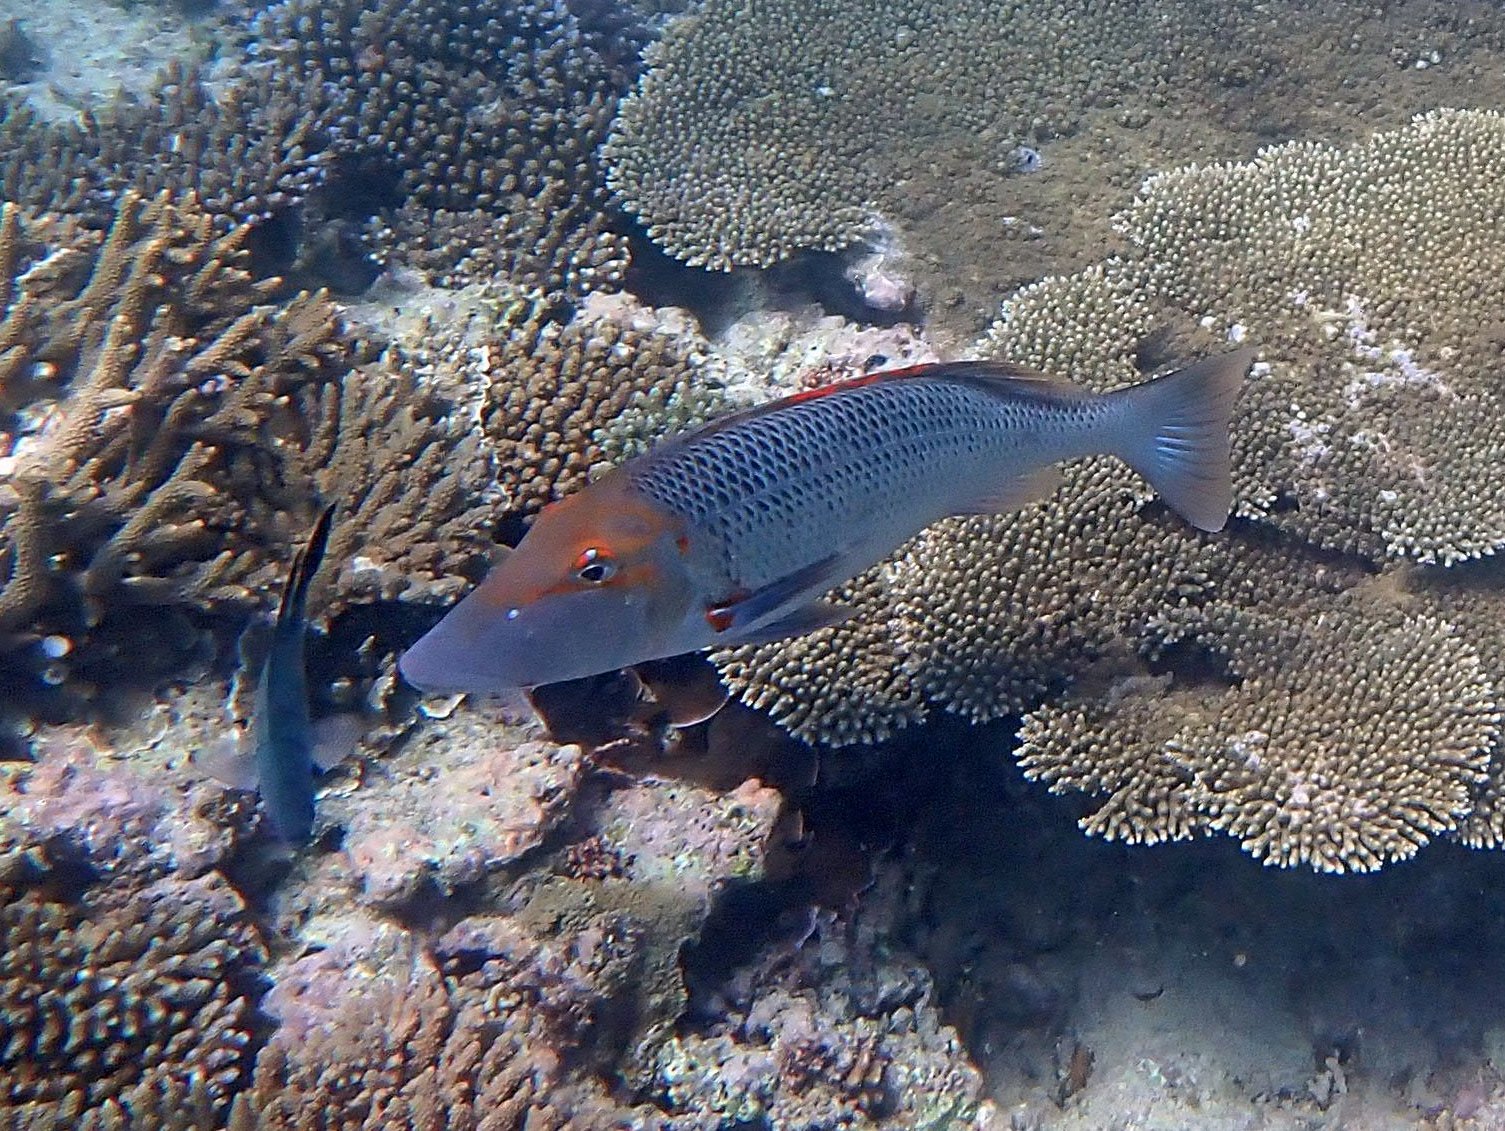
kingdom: Animalia
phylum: Chordata
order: Perciformes
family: Lethrinidae
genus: Lethrinus
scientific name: Lethrinus miniatus
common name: Trumpet emperor
